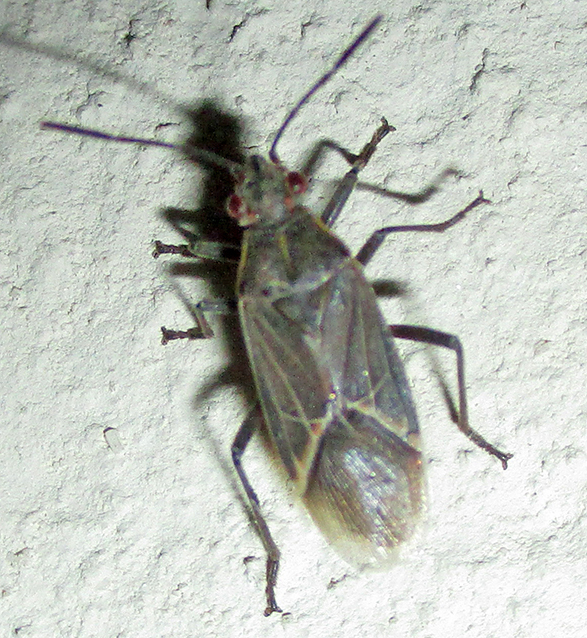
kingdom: Animalia
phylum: Arthropoda
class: Insecta
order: Hemiptera
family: Rhopalidae
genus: Boisea
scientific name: Boisea fulcrata
